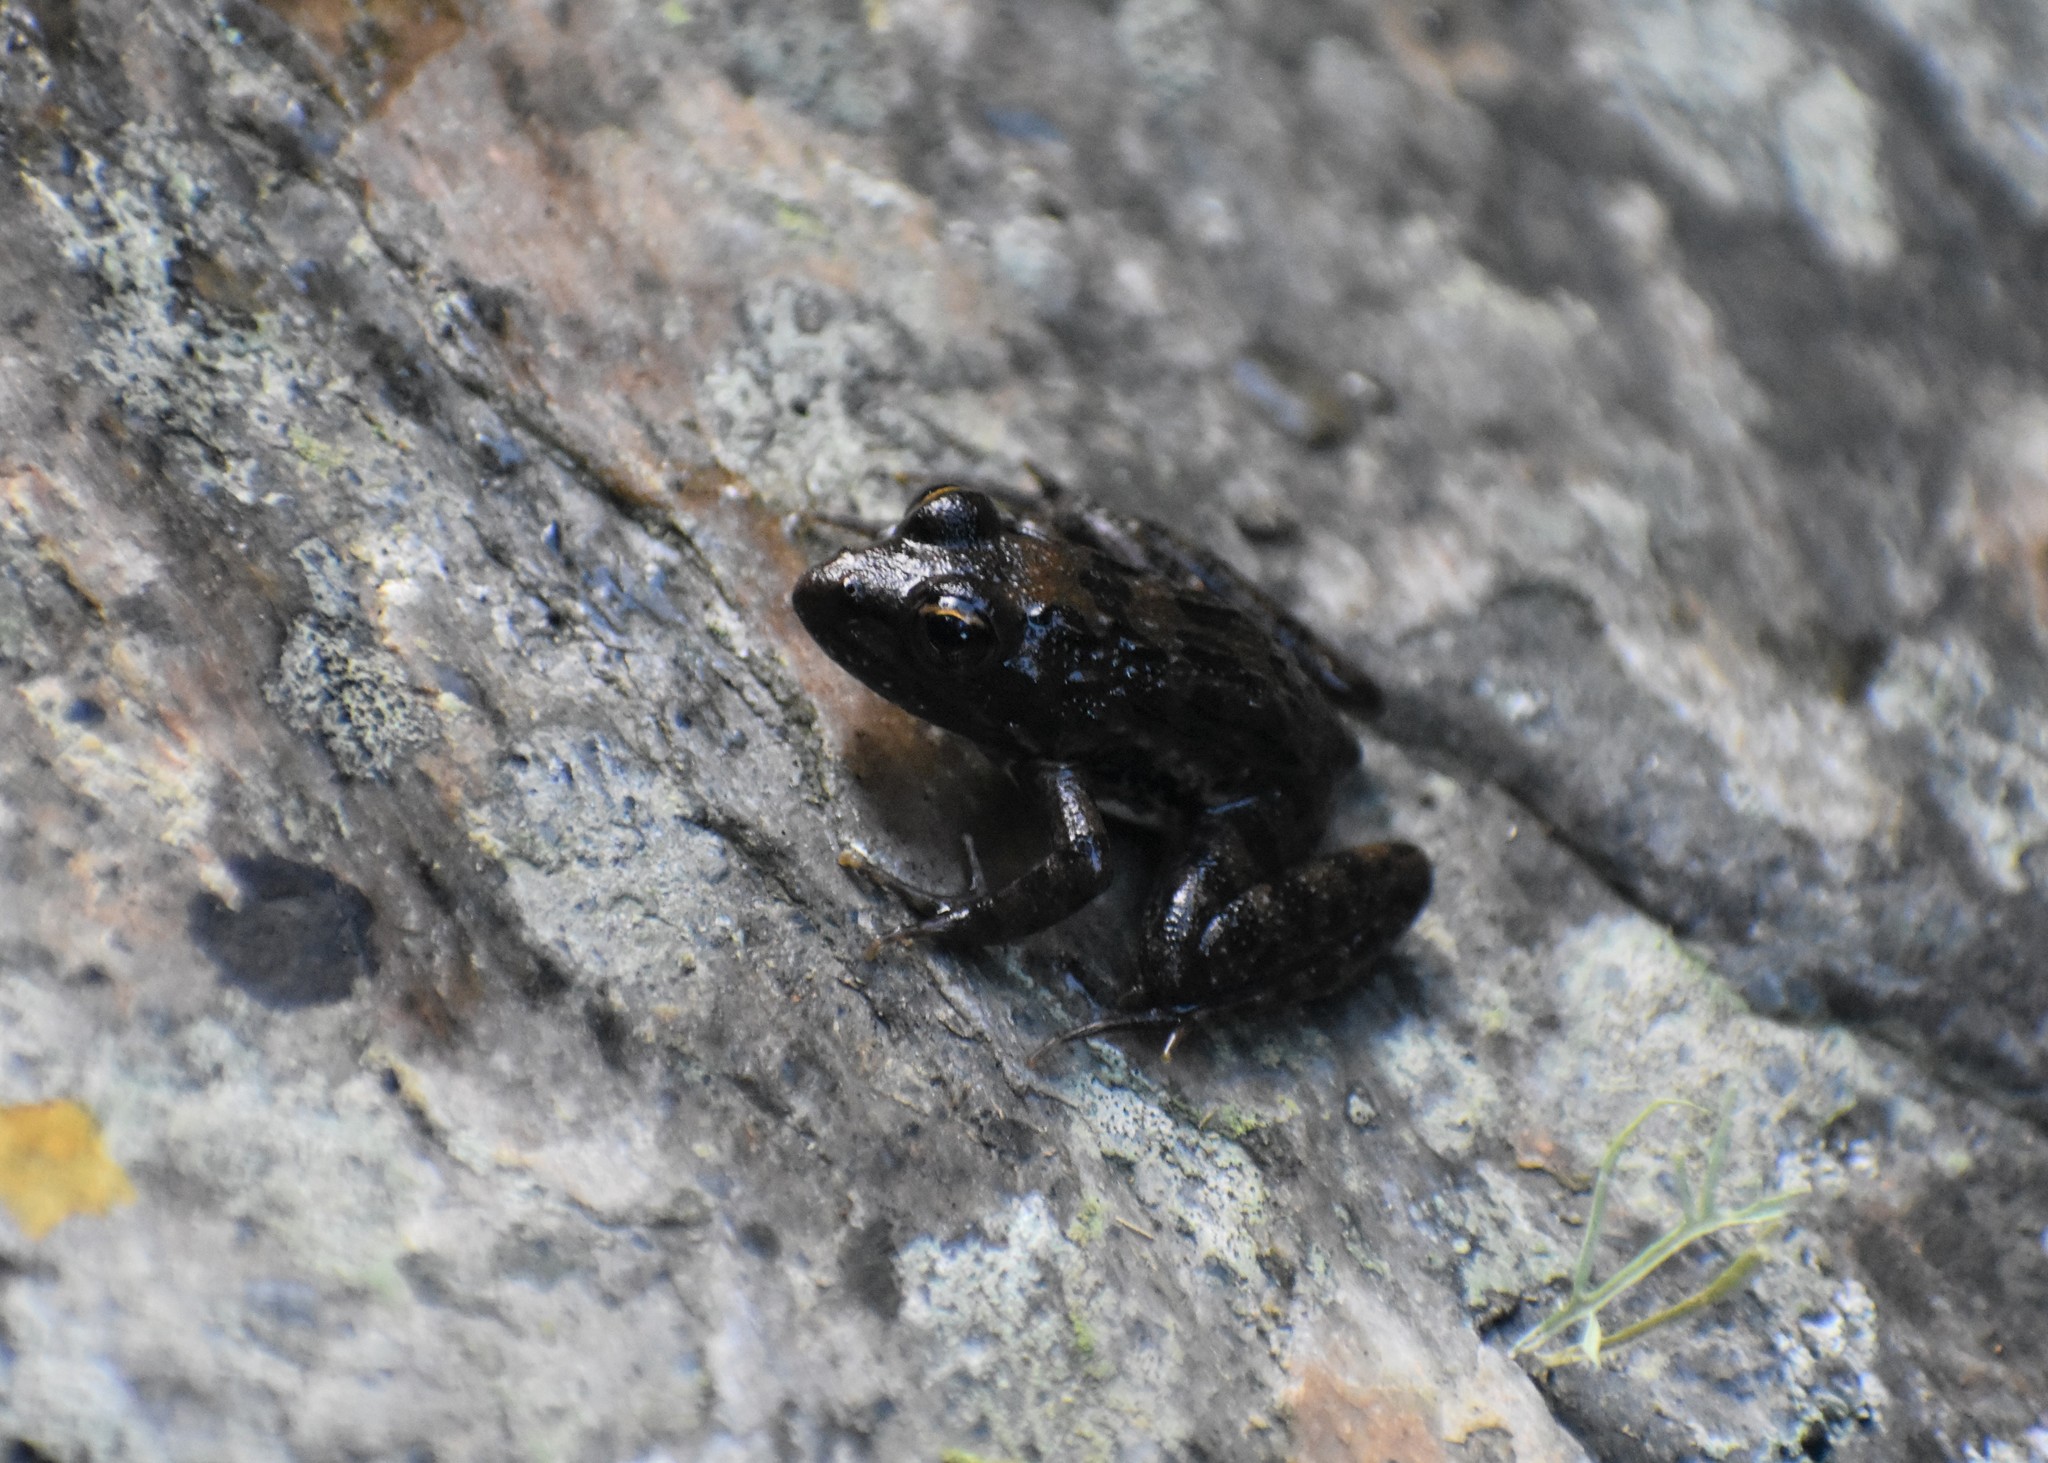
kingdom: Animalia
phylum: Chordata
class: Amphibia
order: Anura
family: Pyxicephalidae
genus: Amietia
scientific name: Amietia fuscigula
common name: Cape rana
